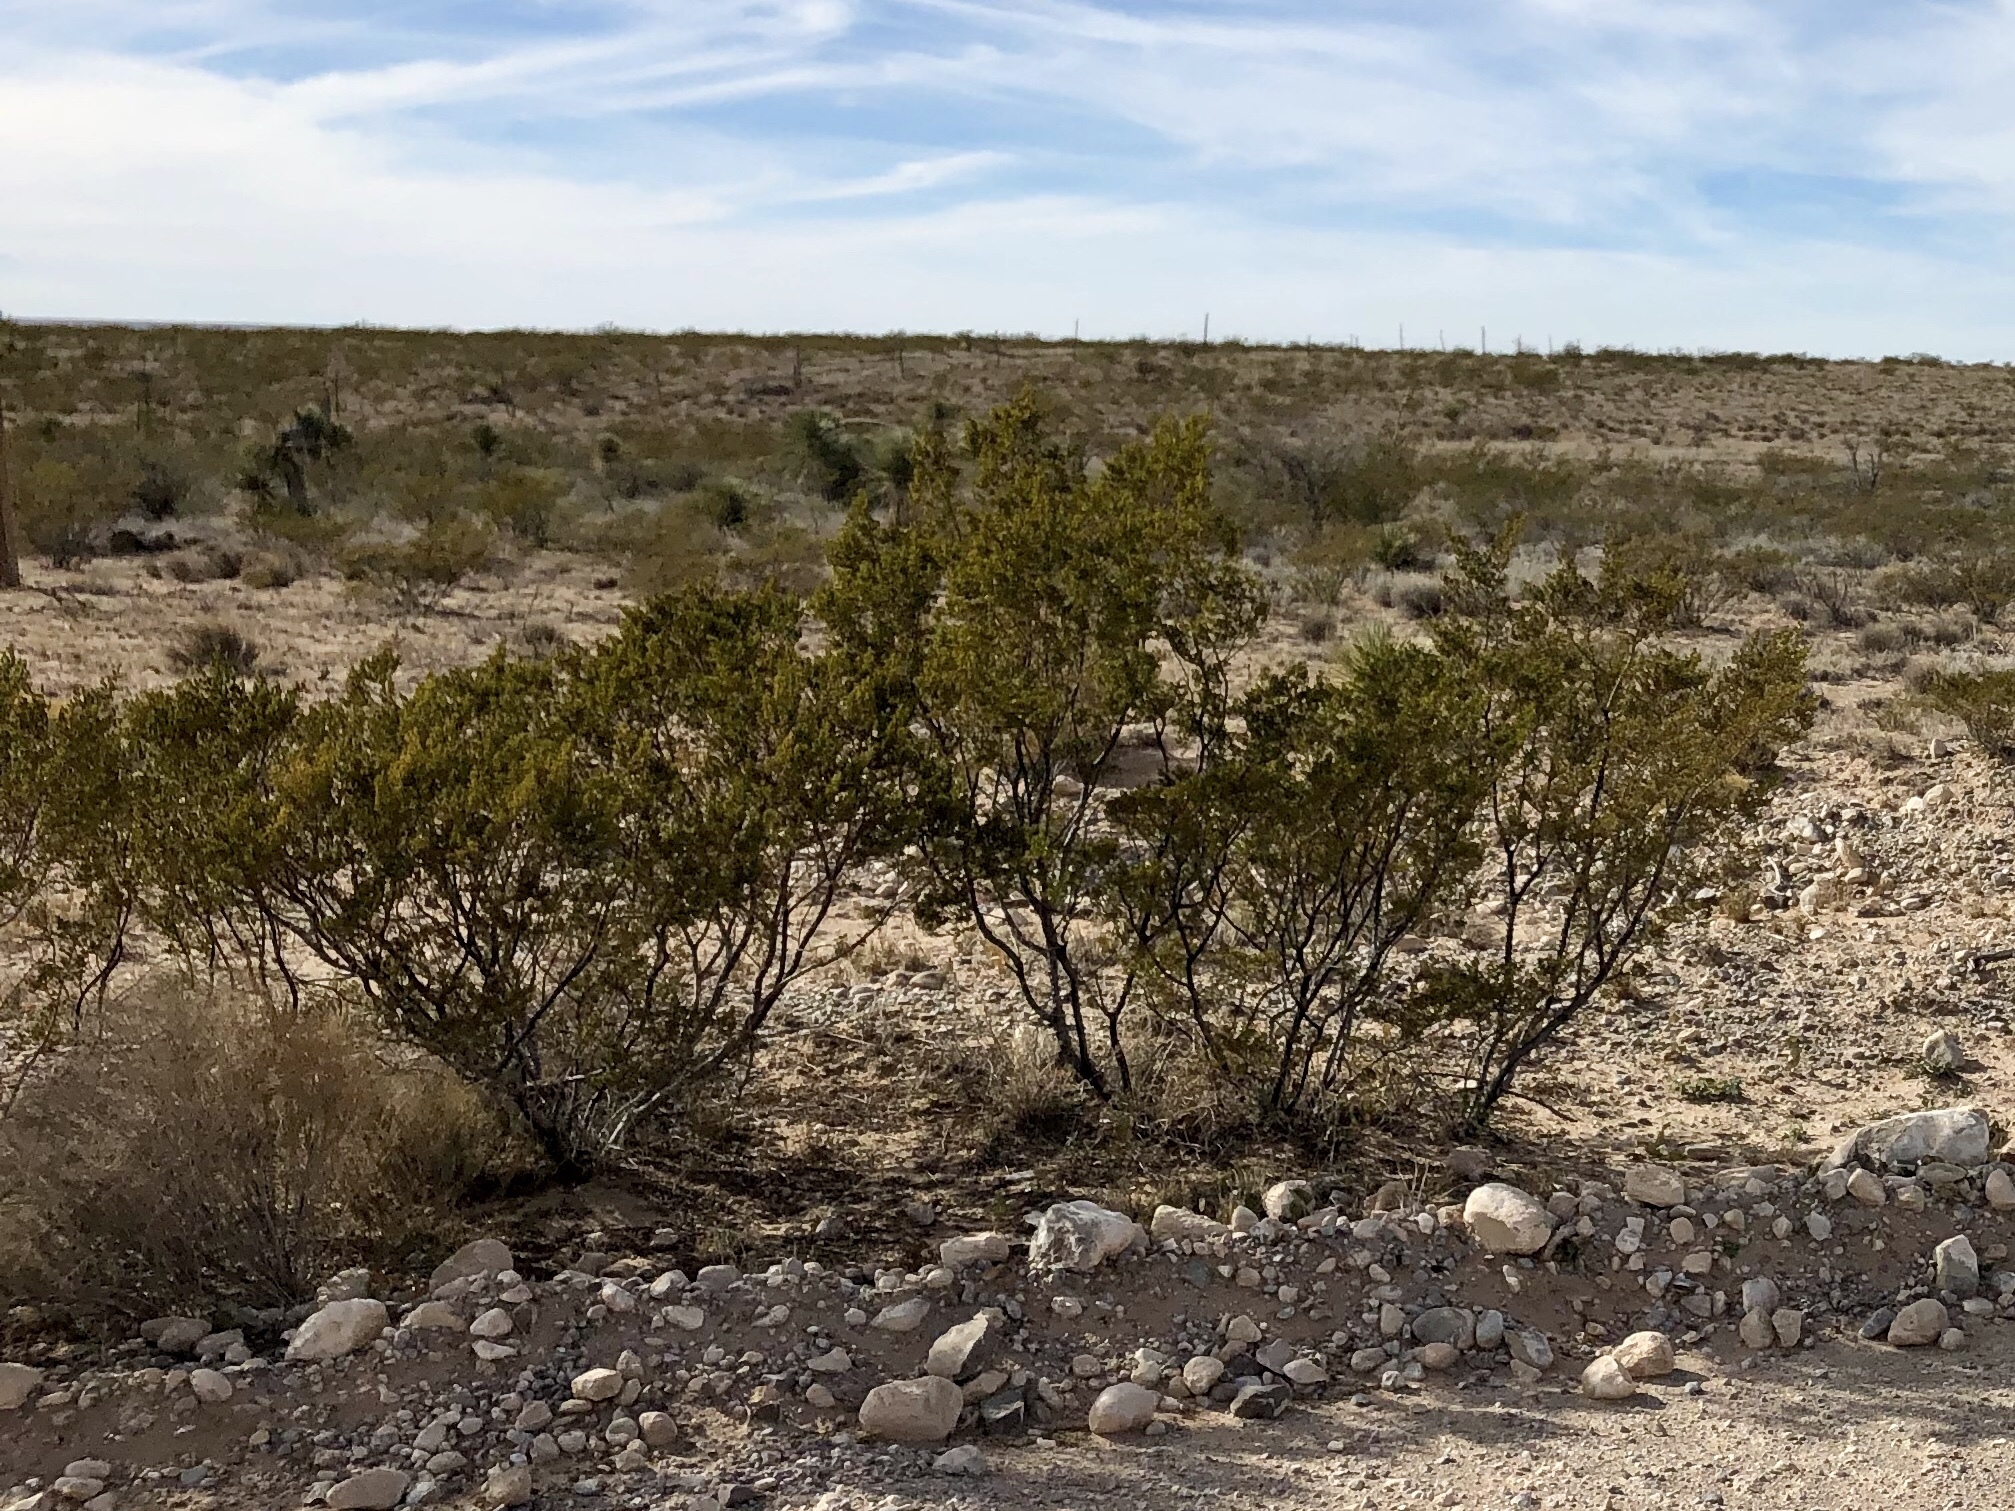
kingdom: Plantae
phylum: Tracheophyta
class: Magnoliopsida
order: Zygophyllales
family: Zygophyllaceae
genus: Larrea
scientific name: Larrea tridentata
